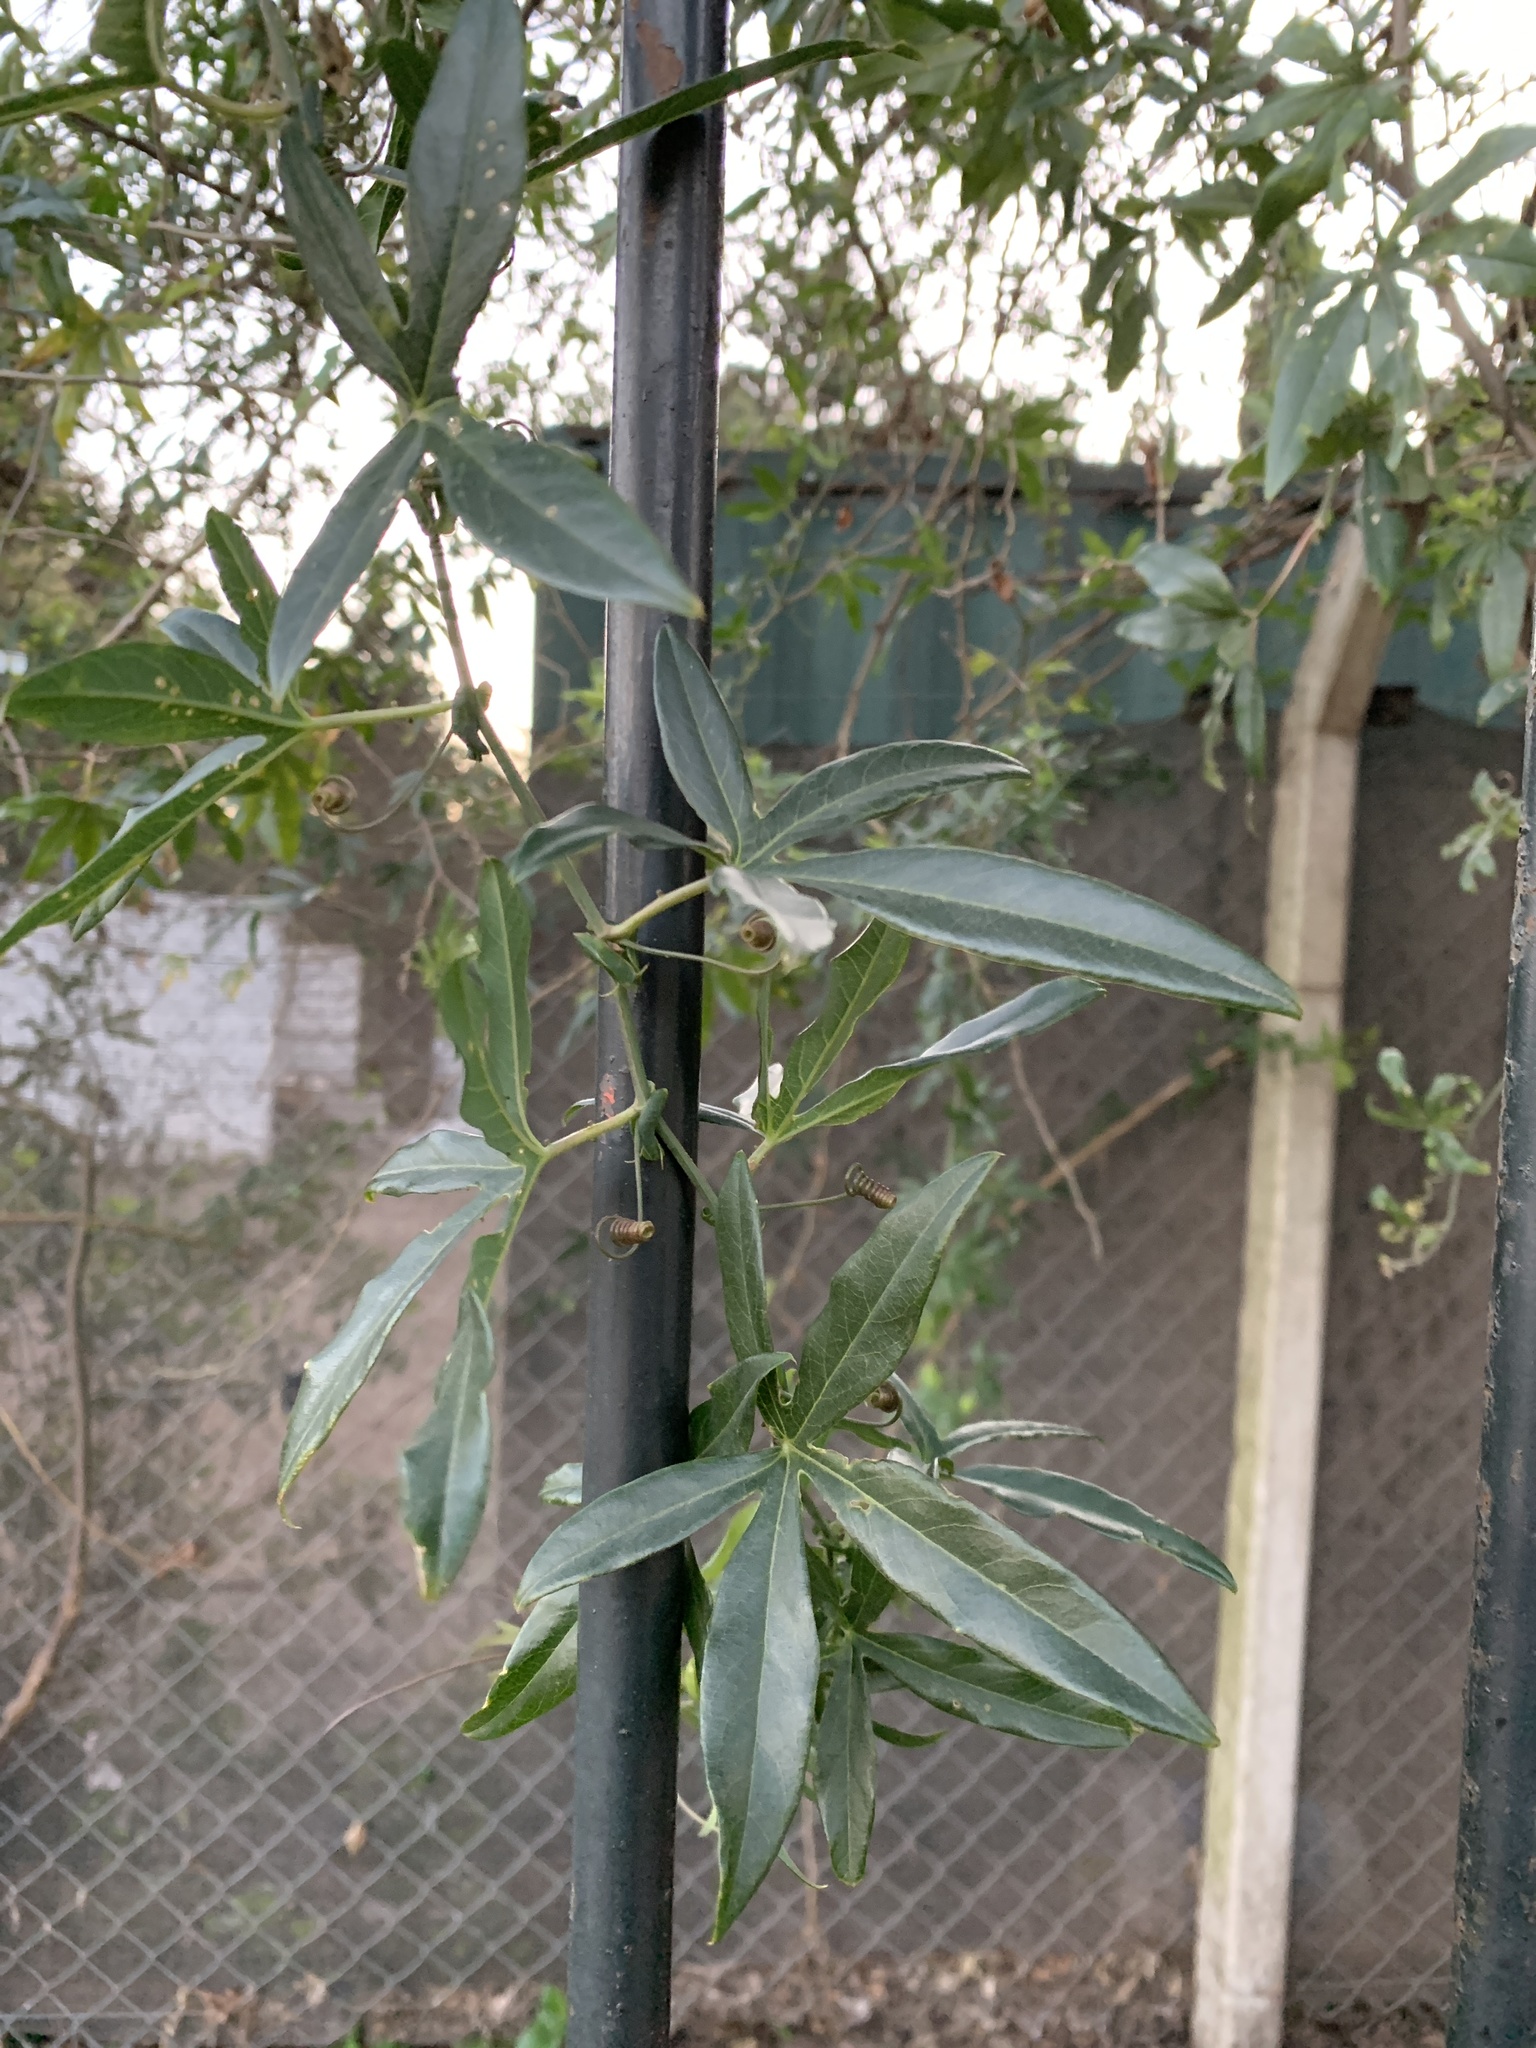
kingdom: Plantae
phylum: Tracheophyta
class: Magnoliopsida
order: Malpighiales
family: Passifloraceae
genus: Passiflora
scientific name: Passiflora caerulea
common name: Blue passionflower
